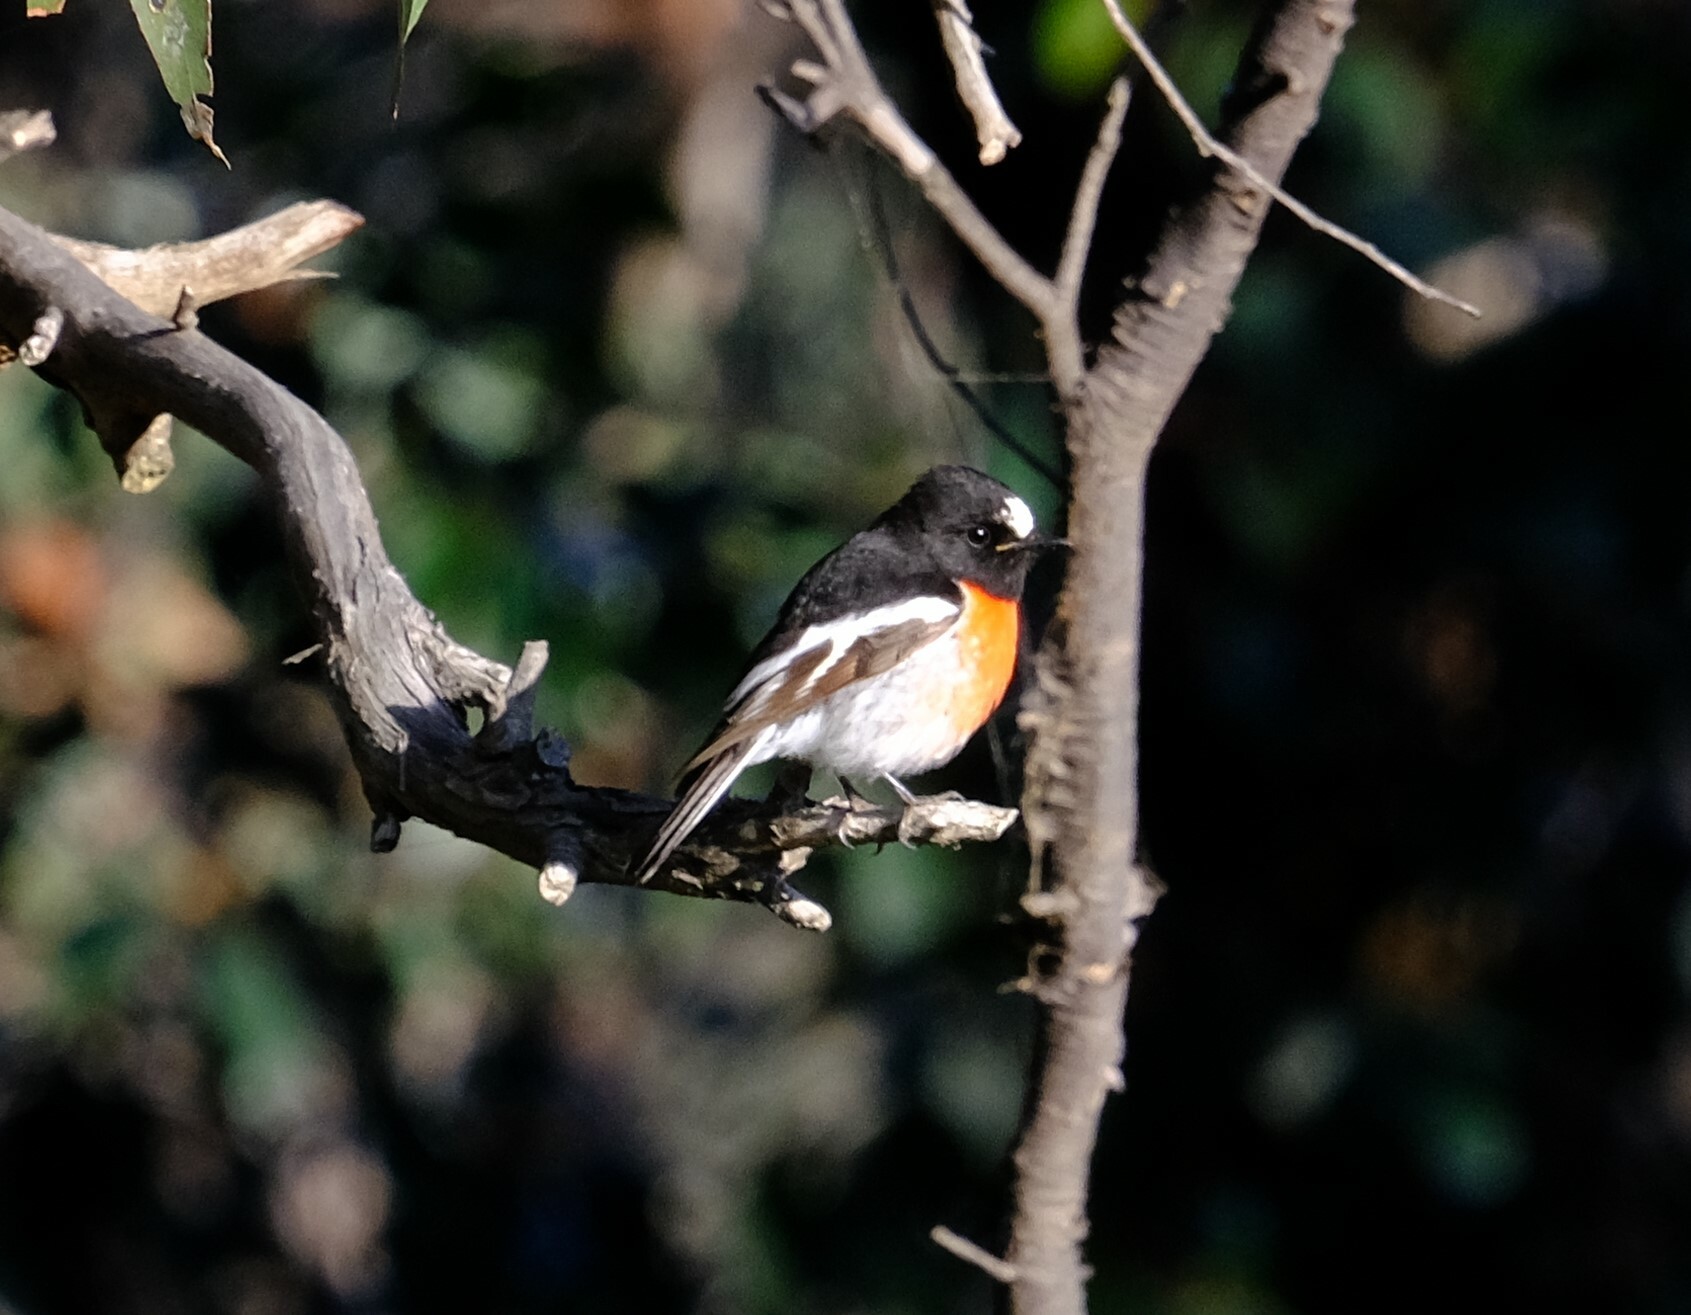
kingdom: Animalia
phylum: Chordata
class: Aves
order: Passeriformes
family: Petroicidae
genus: Petroica
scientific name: Petroica boodang
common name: Scarlet robin
